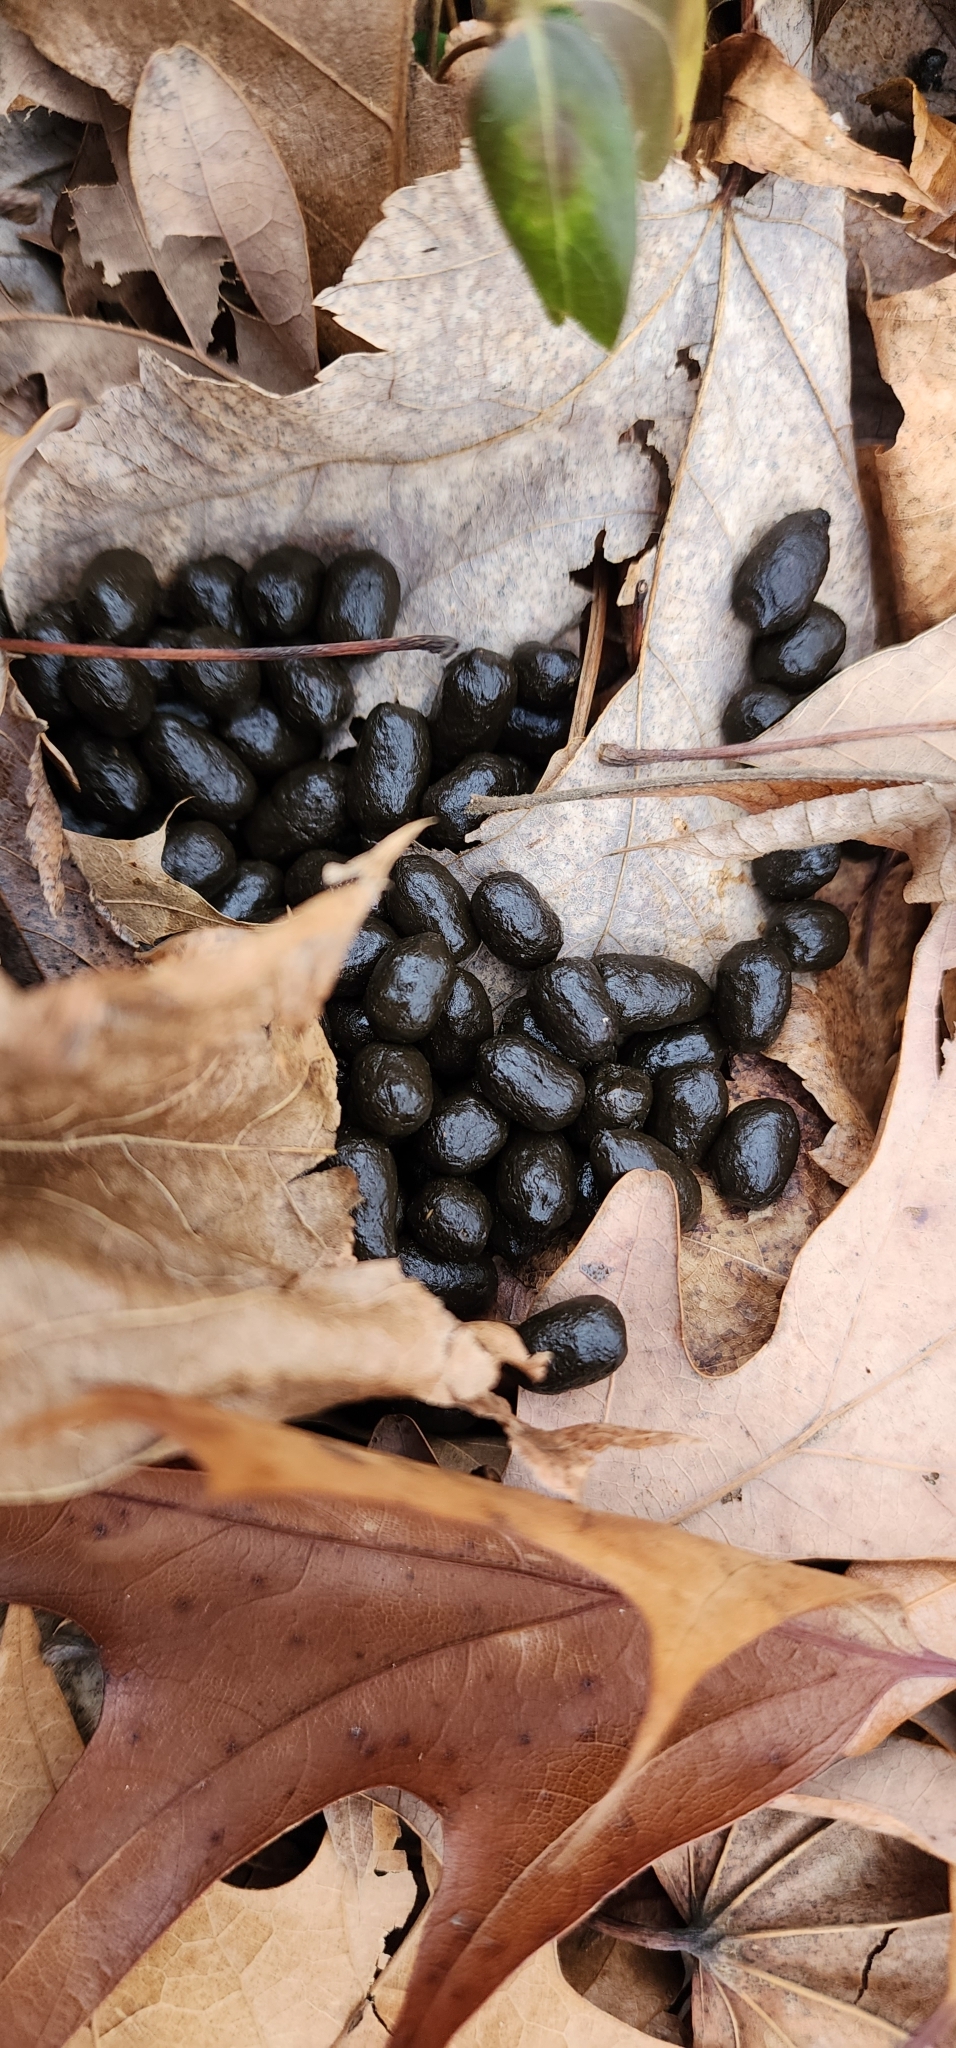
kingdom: Animalia
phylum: Chordata
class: Mammalia
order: Artiodactyla
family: Cervidae
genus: Odocoileus
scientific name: Odocoileus virginianus
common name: White-tailed deer
